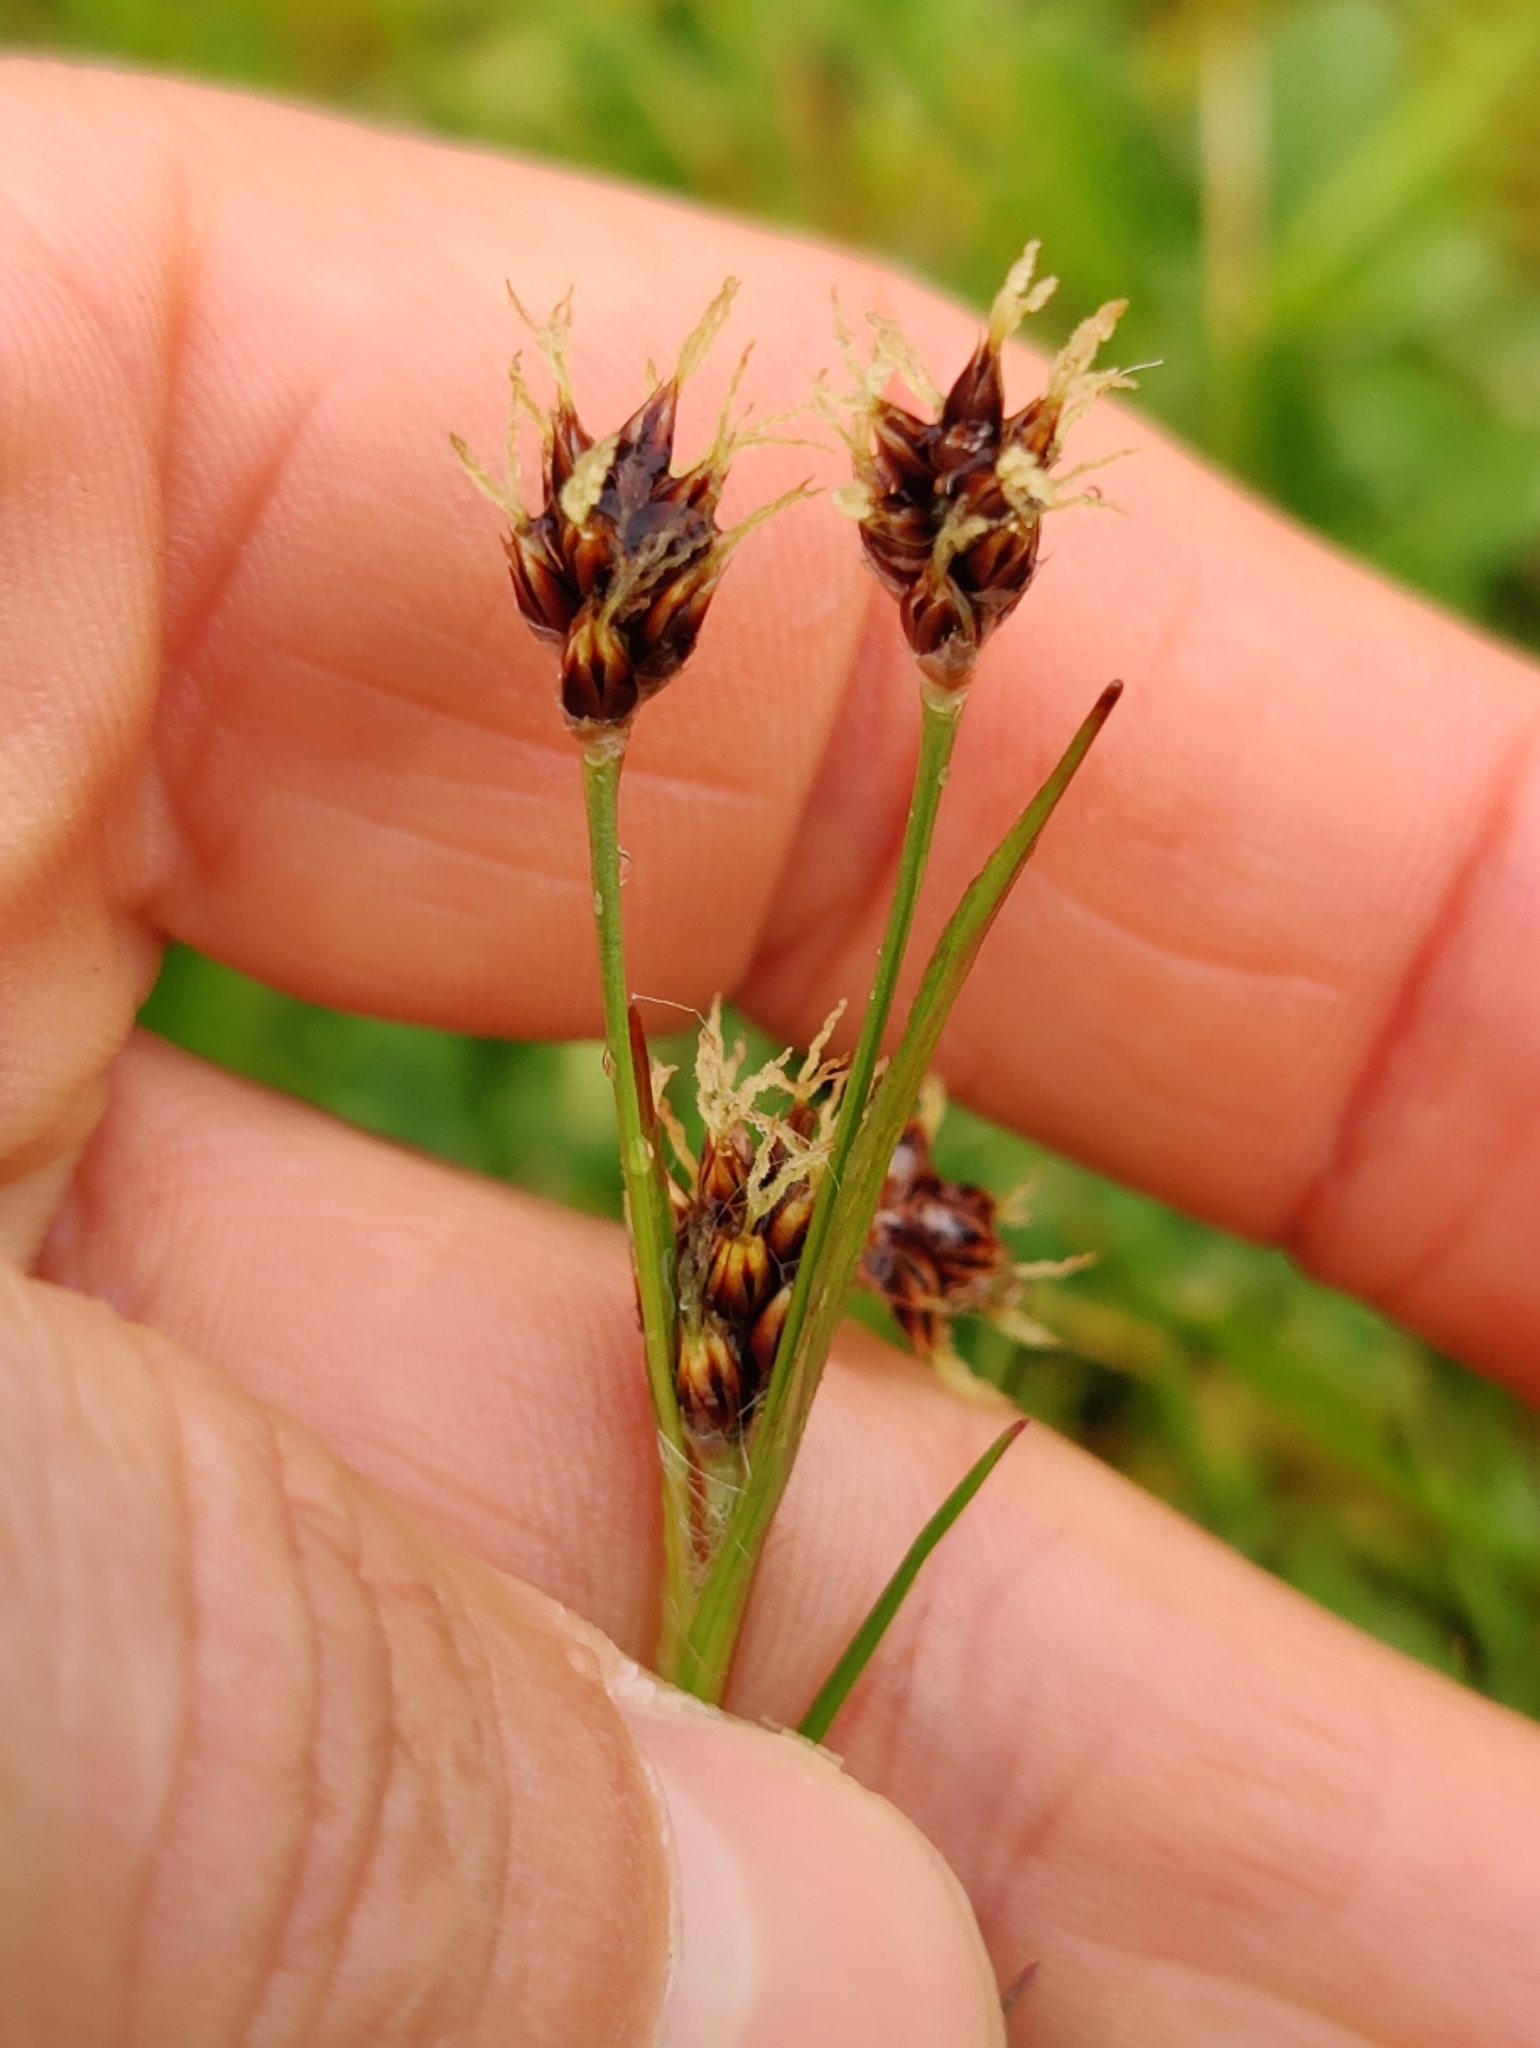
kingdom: Plantae
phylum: Tracheophyta
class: Liliopsida
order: Poales
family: Juncaceae
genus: Luzula
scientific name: Luzula campestris
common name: Field wood-rush
